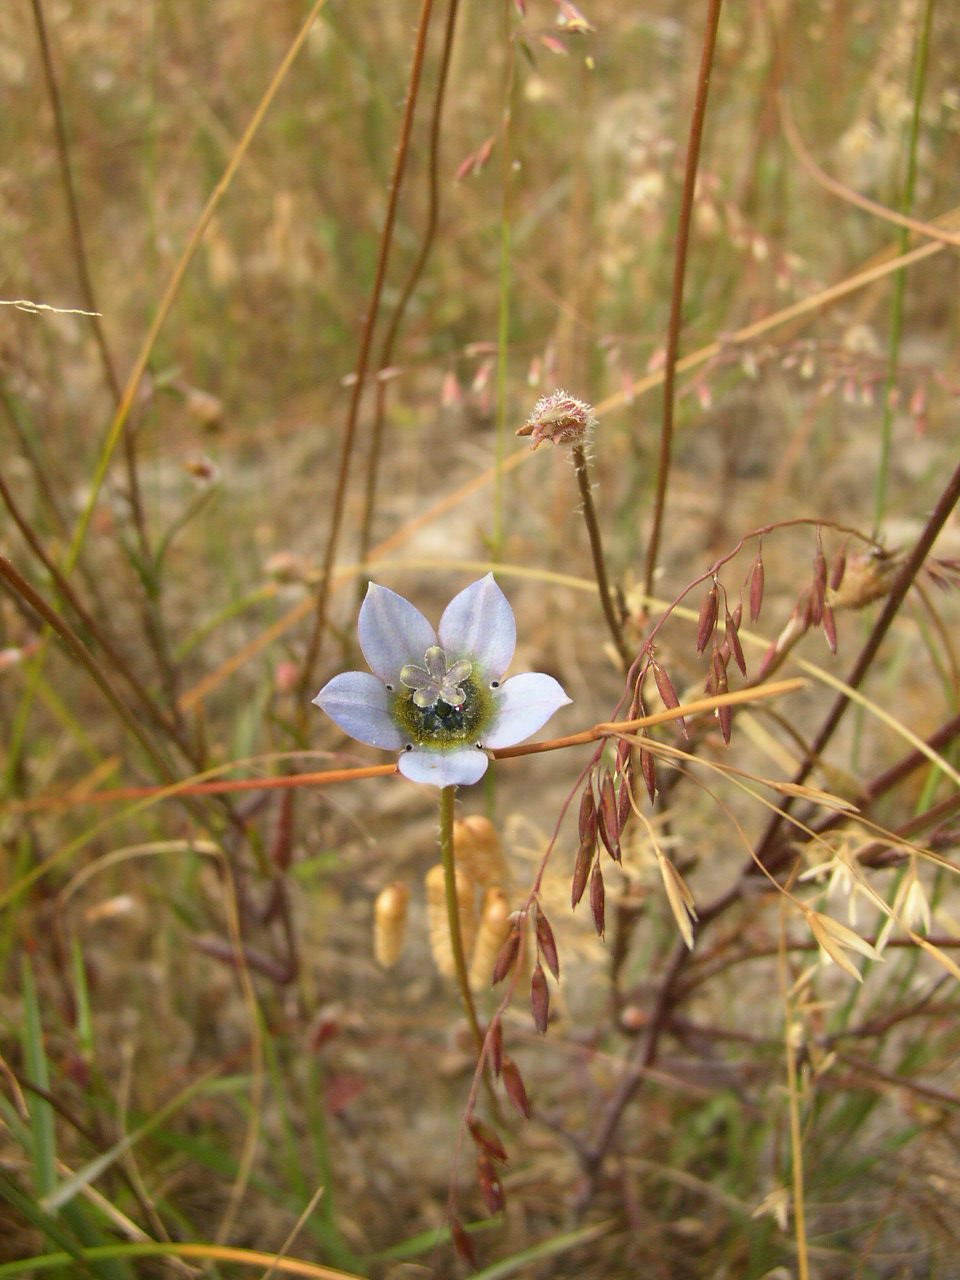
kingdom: Plantae
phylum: Tracheophyta
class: Magnoliopsida
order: Asterales
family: Campanulaceae
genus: Wahlenbergia
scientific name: Wahlenbergia capensis
